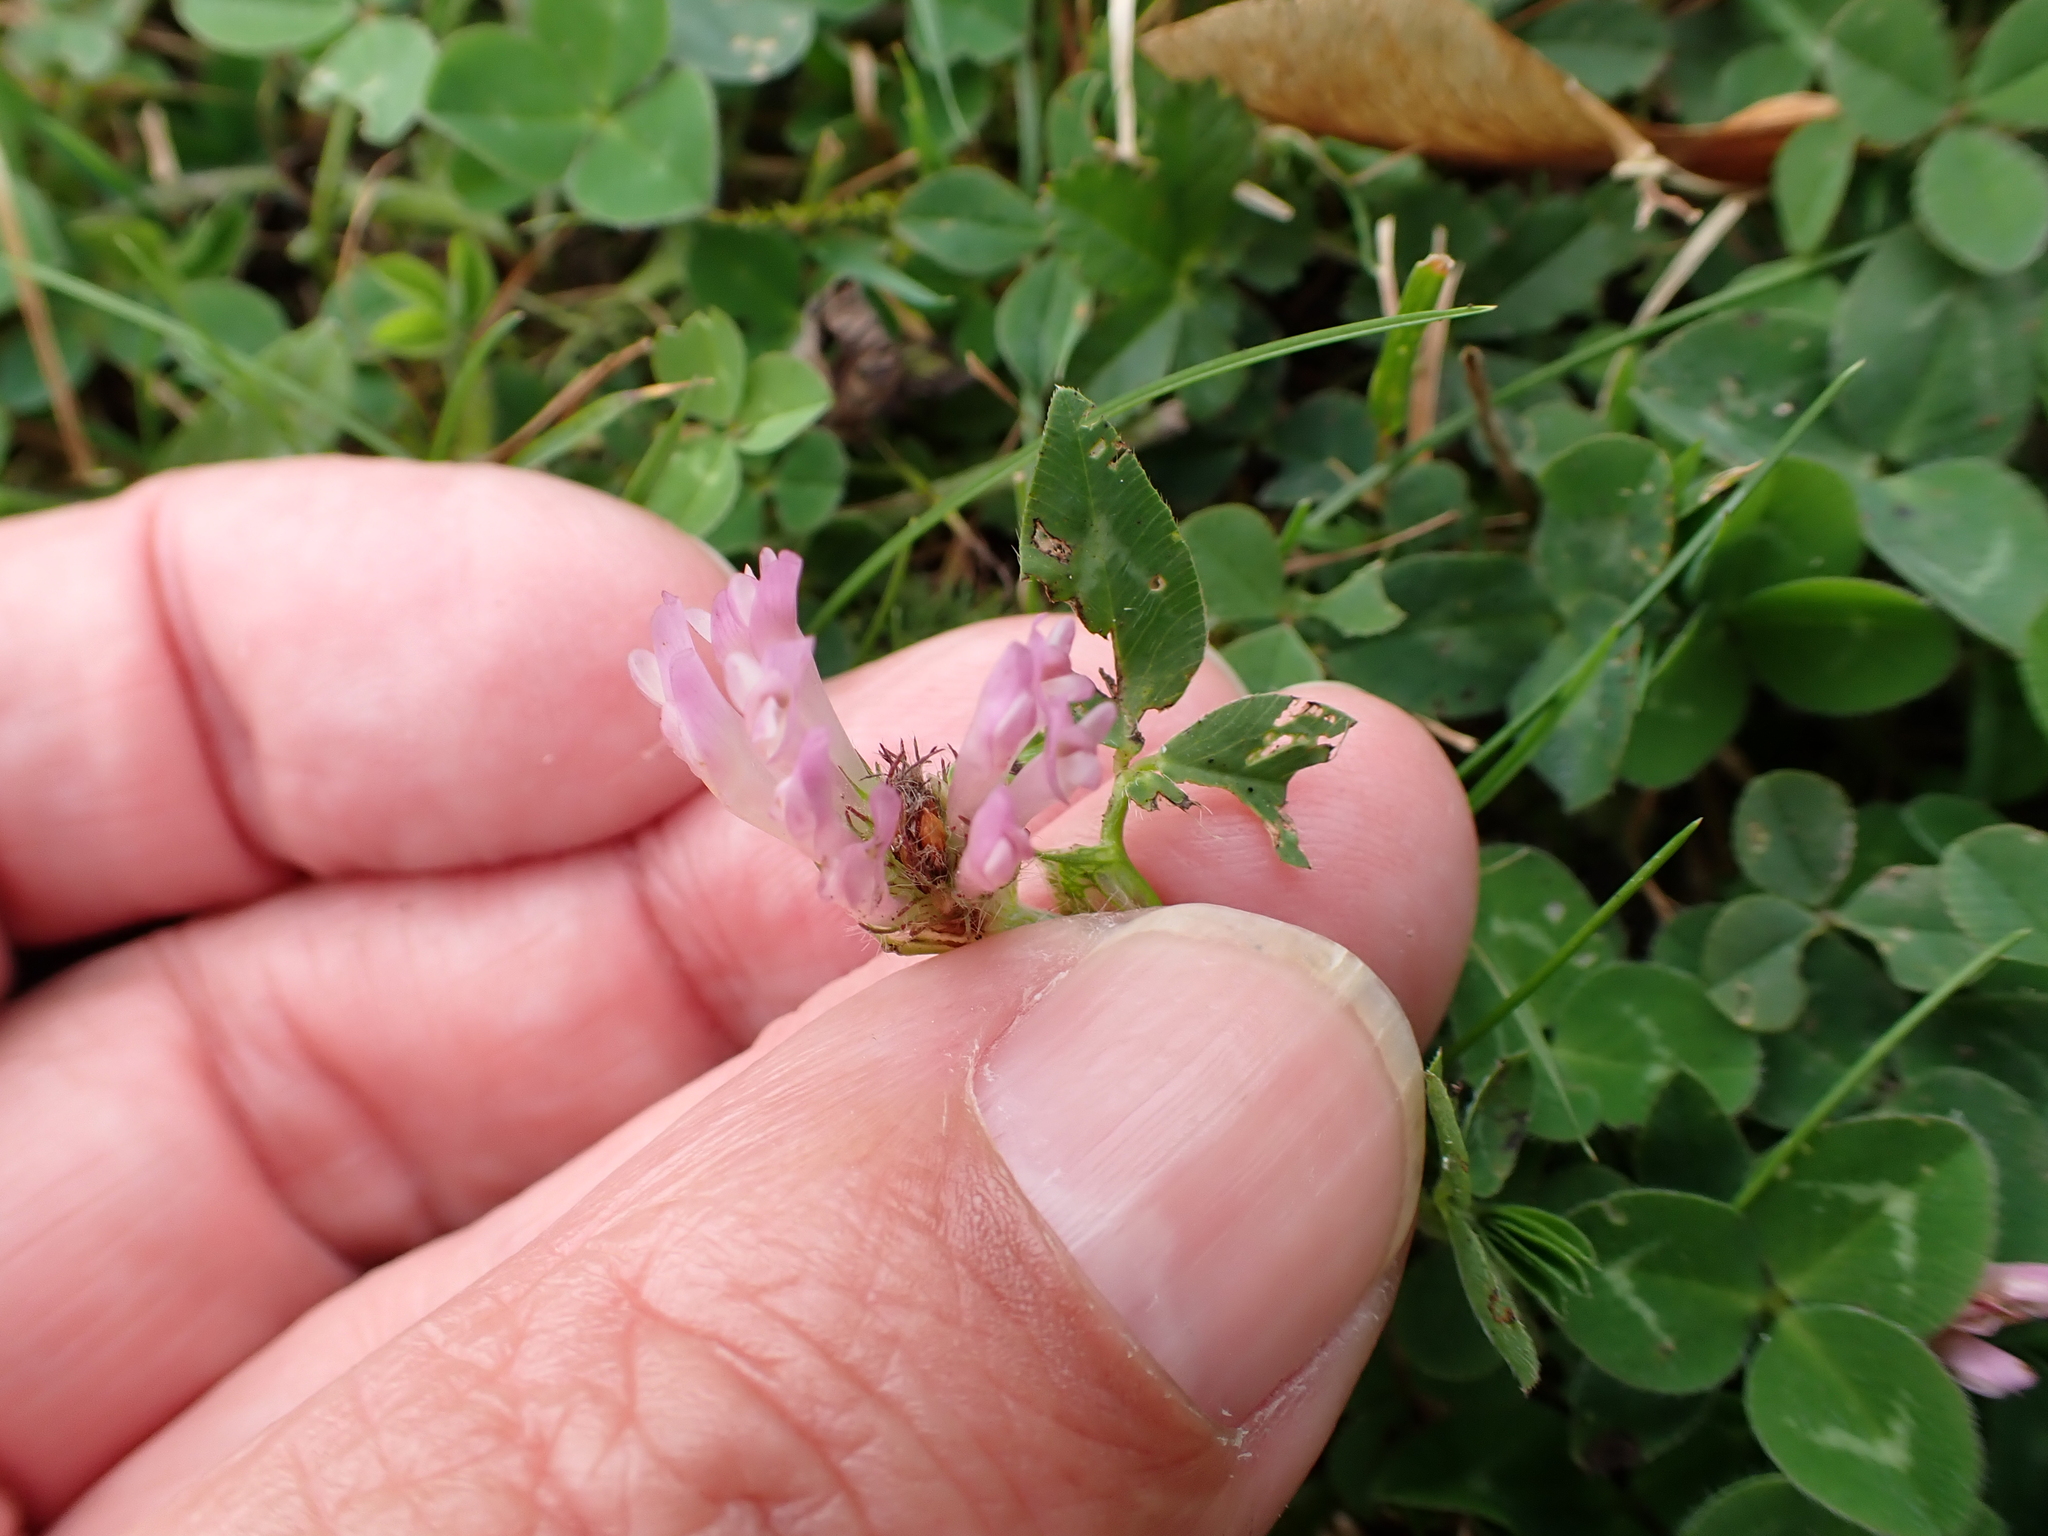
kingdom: Plantae
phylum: Tracheophyta
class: Magnoliopsida
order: Fabales
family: Fabaceae
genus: Trifolium
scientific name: Trifolium pratense
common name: Red clover
